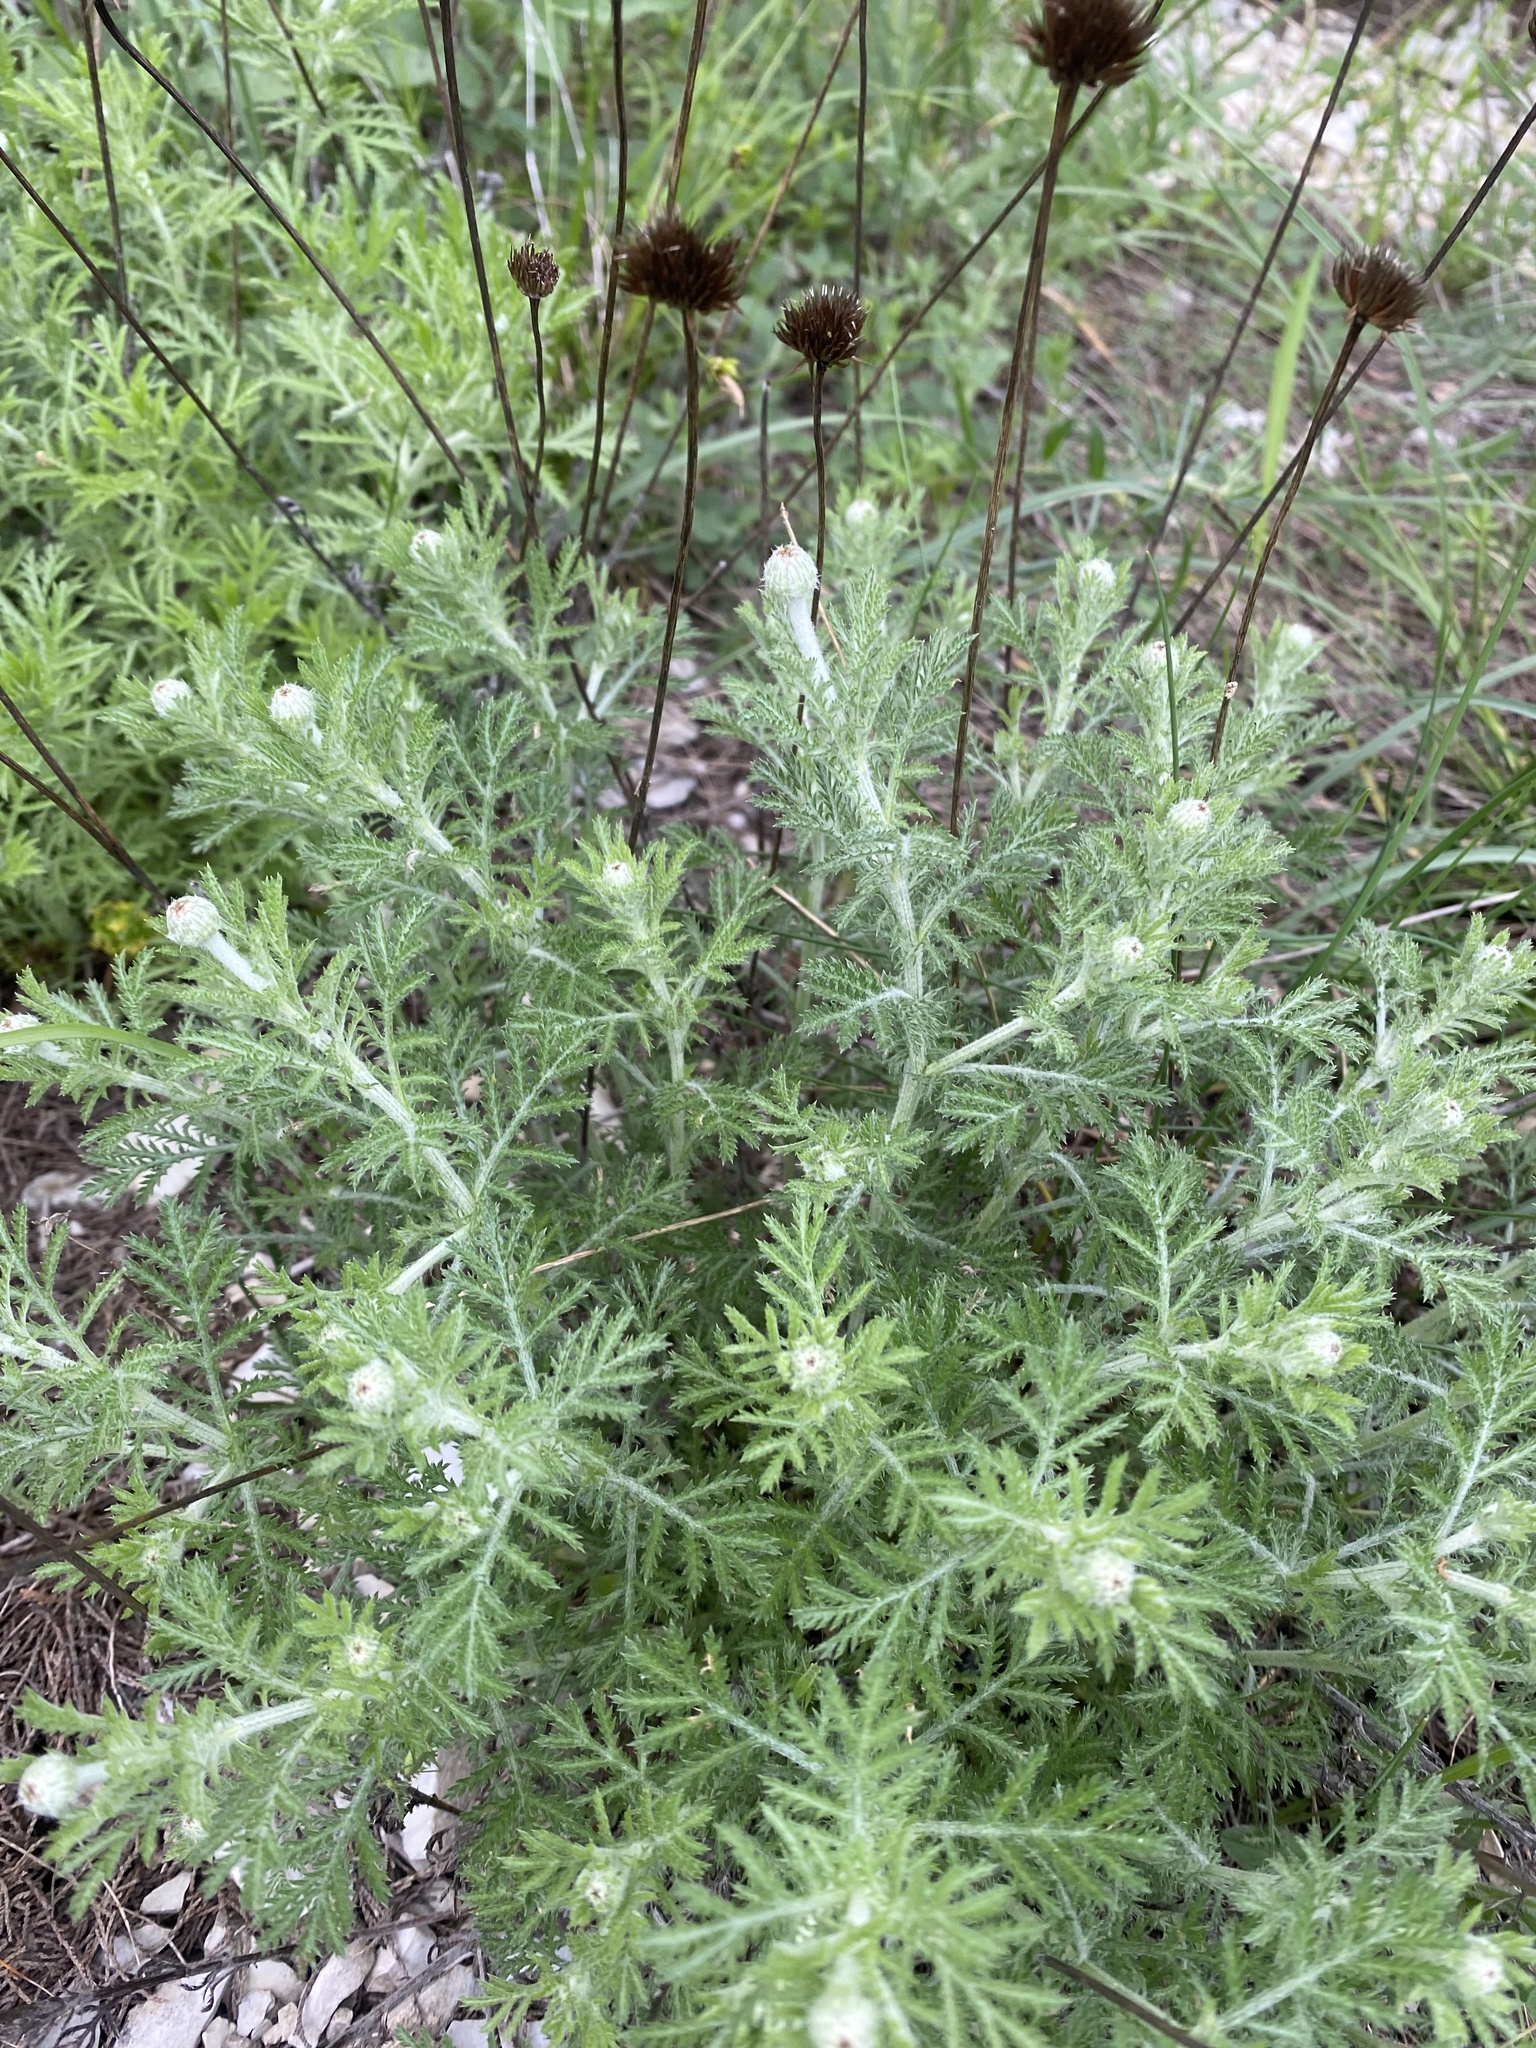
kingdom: Plantae
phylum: Tracheophyta
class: Magnoliopsida
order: Asterales
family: Asteraceae
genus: Cota
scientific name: Cota tinctoria
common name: Golden chamomile
